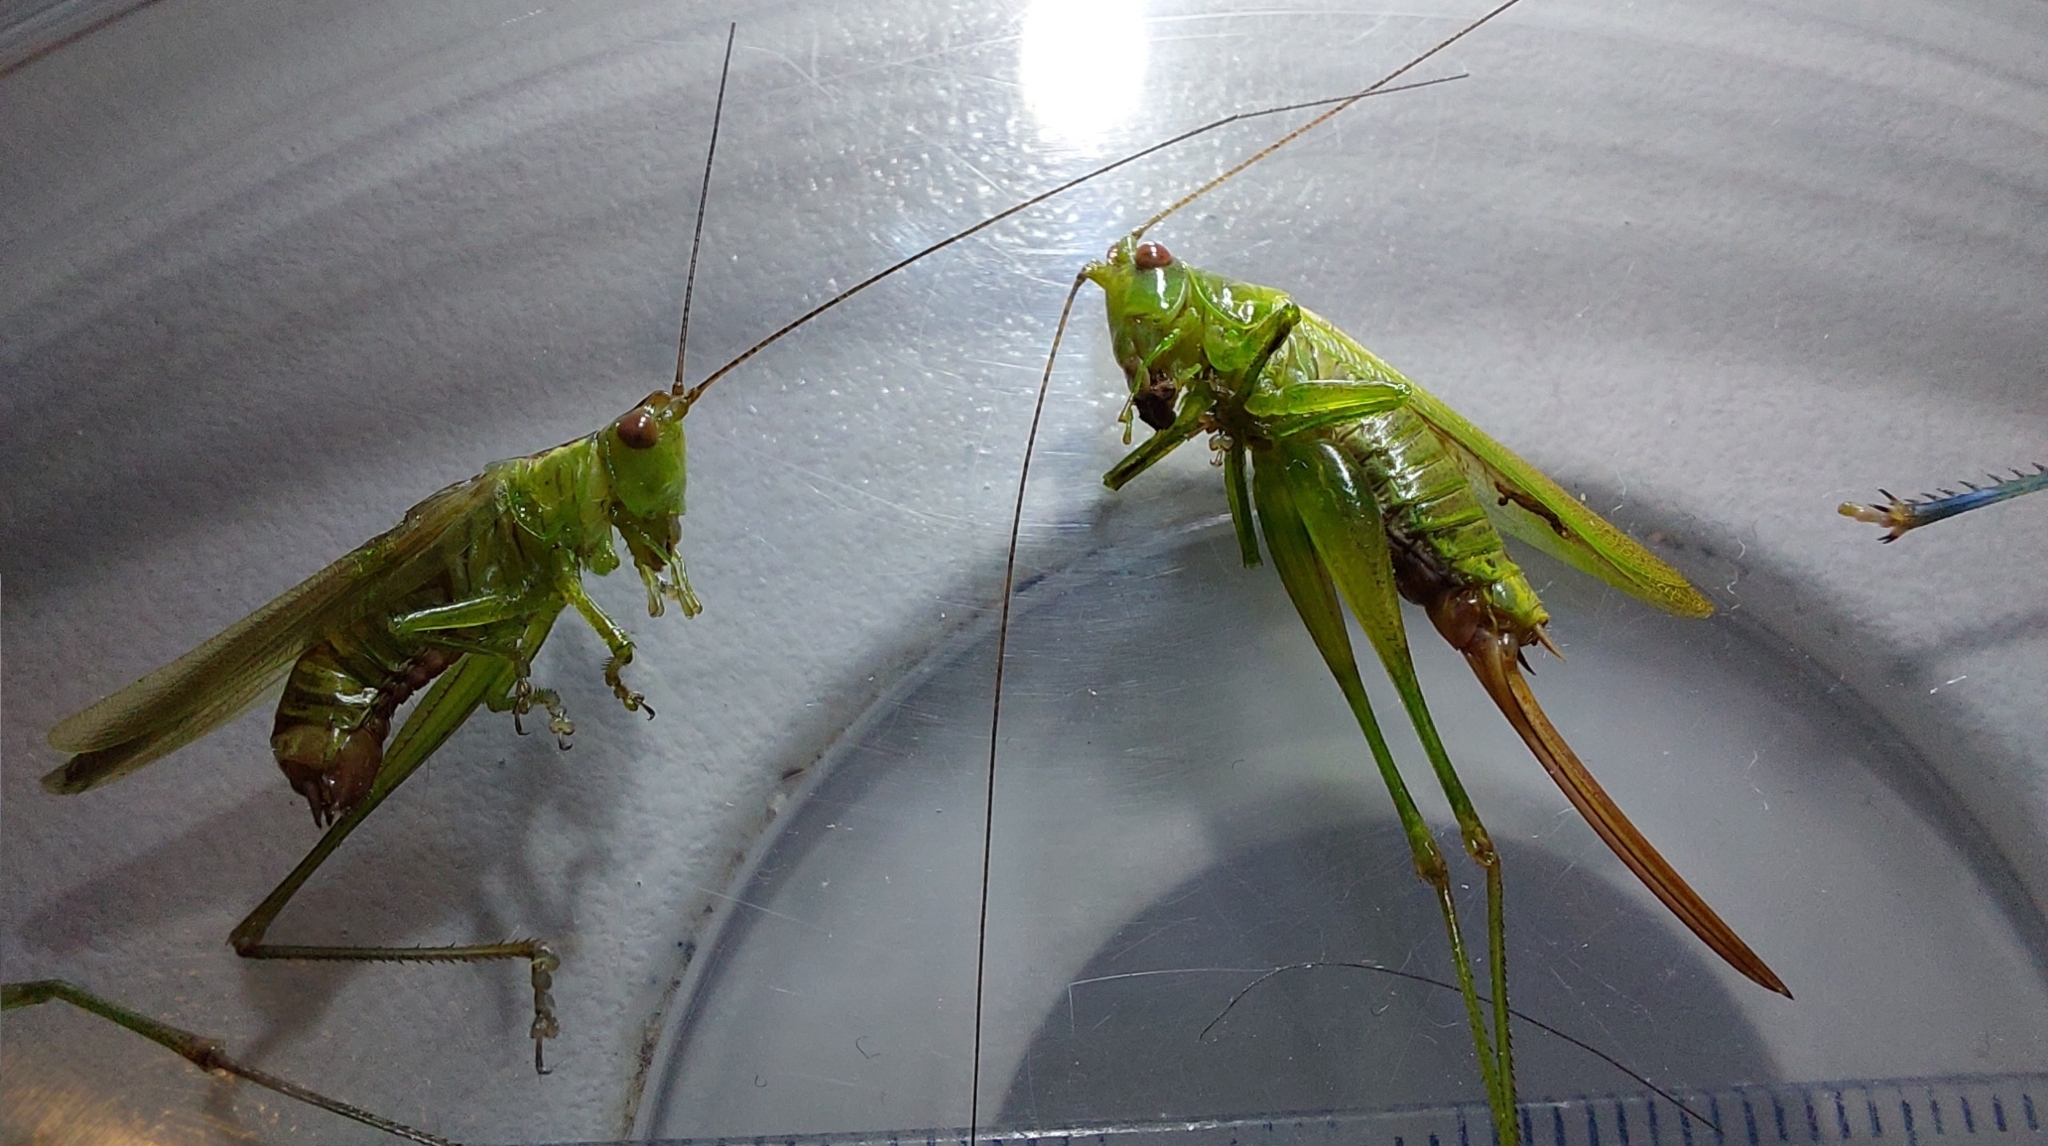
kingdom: Animalia
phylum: Arthropoda
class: Insecta
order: Orthoptera
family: Tettigoniidae
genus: Conocephalus
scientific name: Conocephalus fuscus
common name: Long-winged conehead
